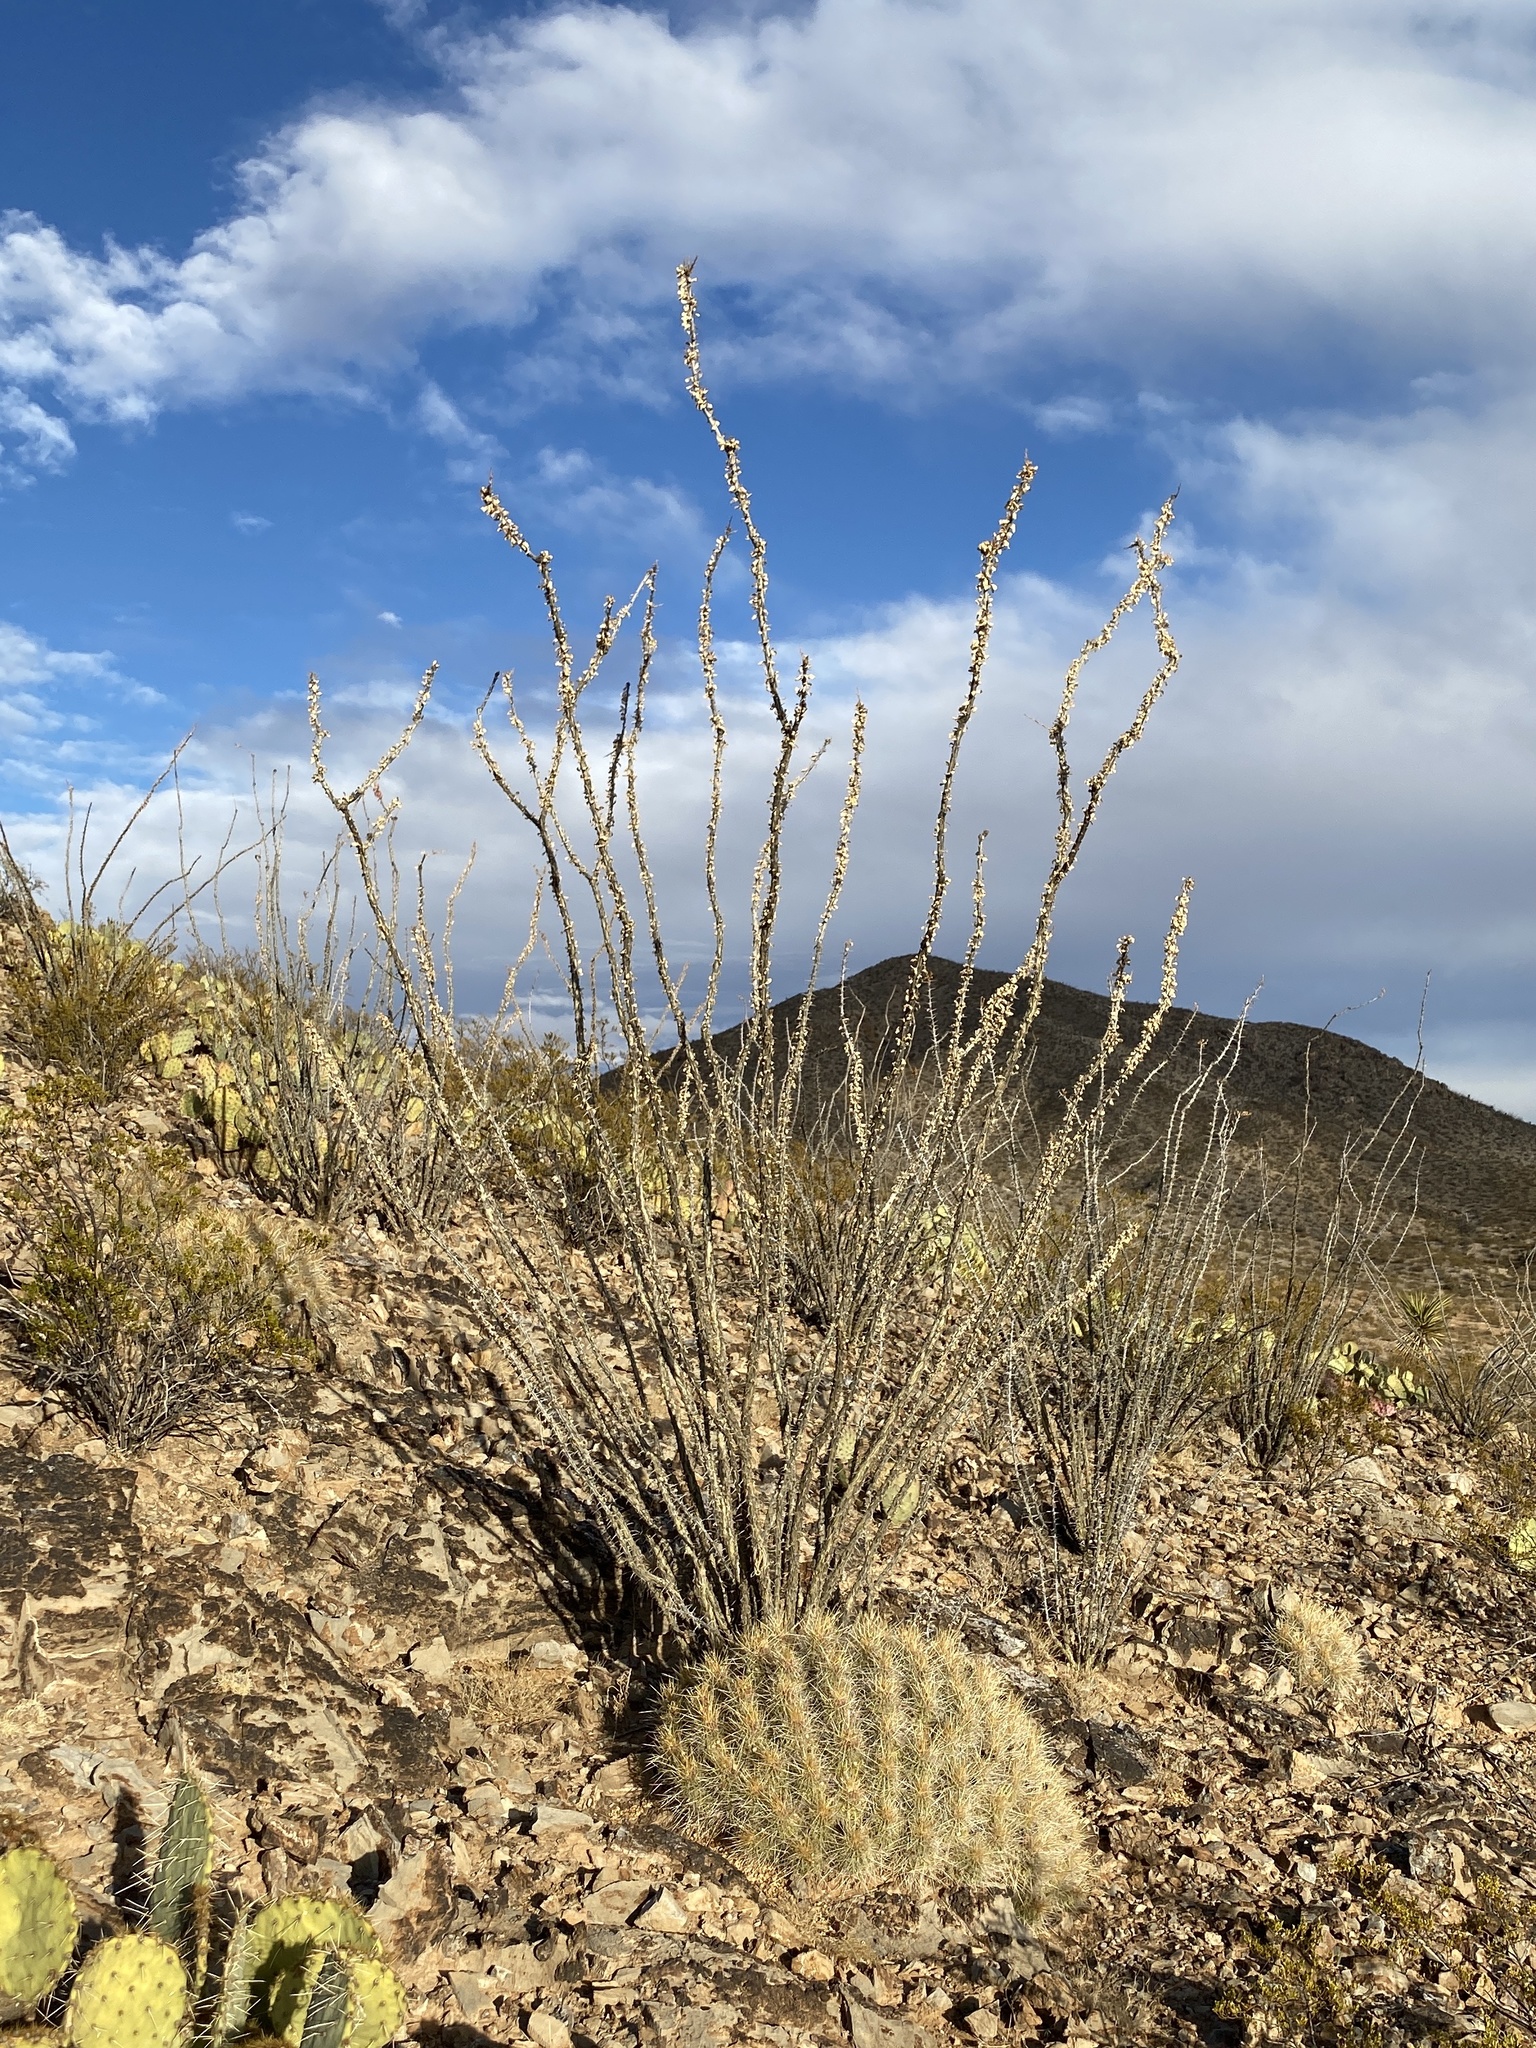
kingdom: Plantae
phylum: Tracheophyta
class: Magnoliopsida
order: Ericales
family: Fouquieriaceae
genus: Fouquieria
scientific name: Fouquieria splendens
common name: Vine-cactus
